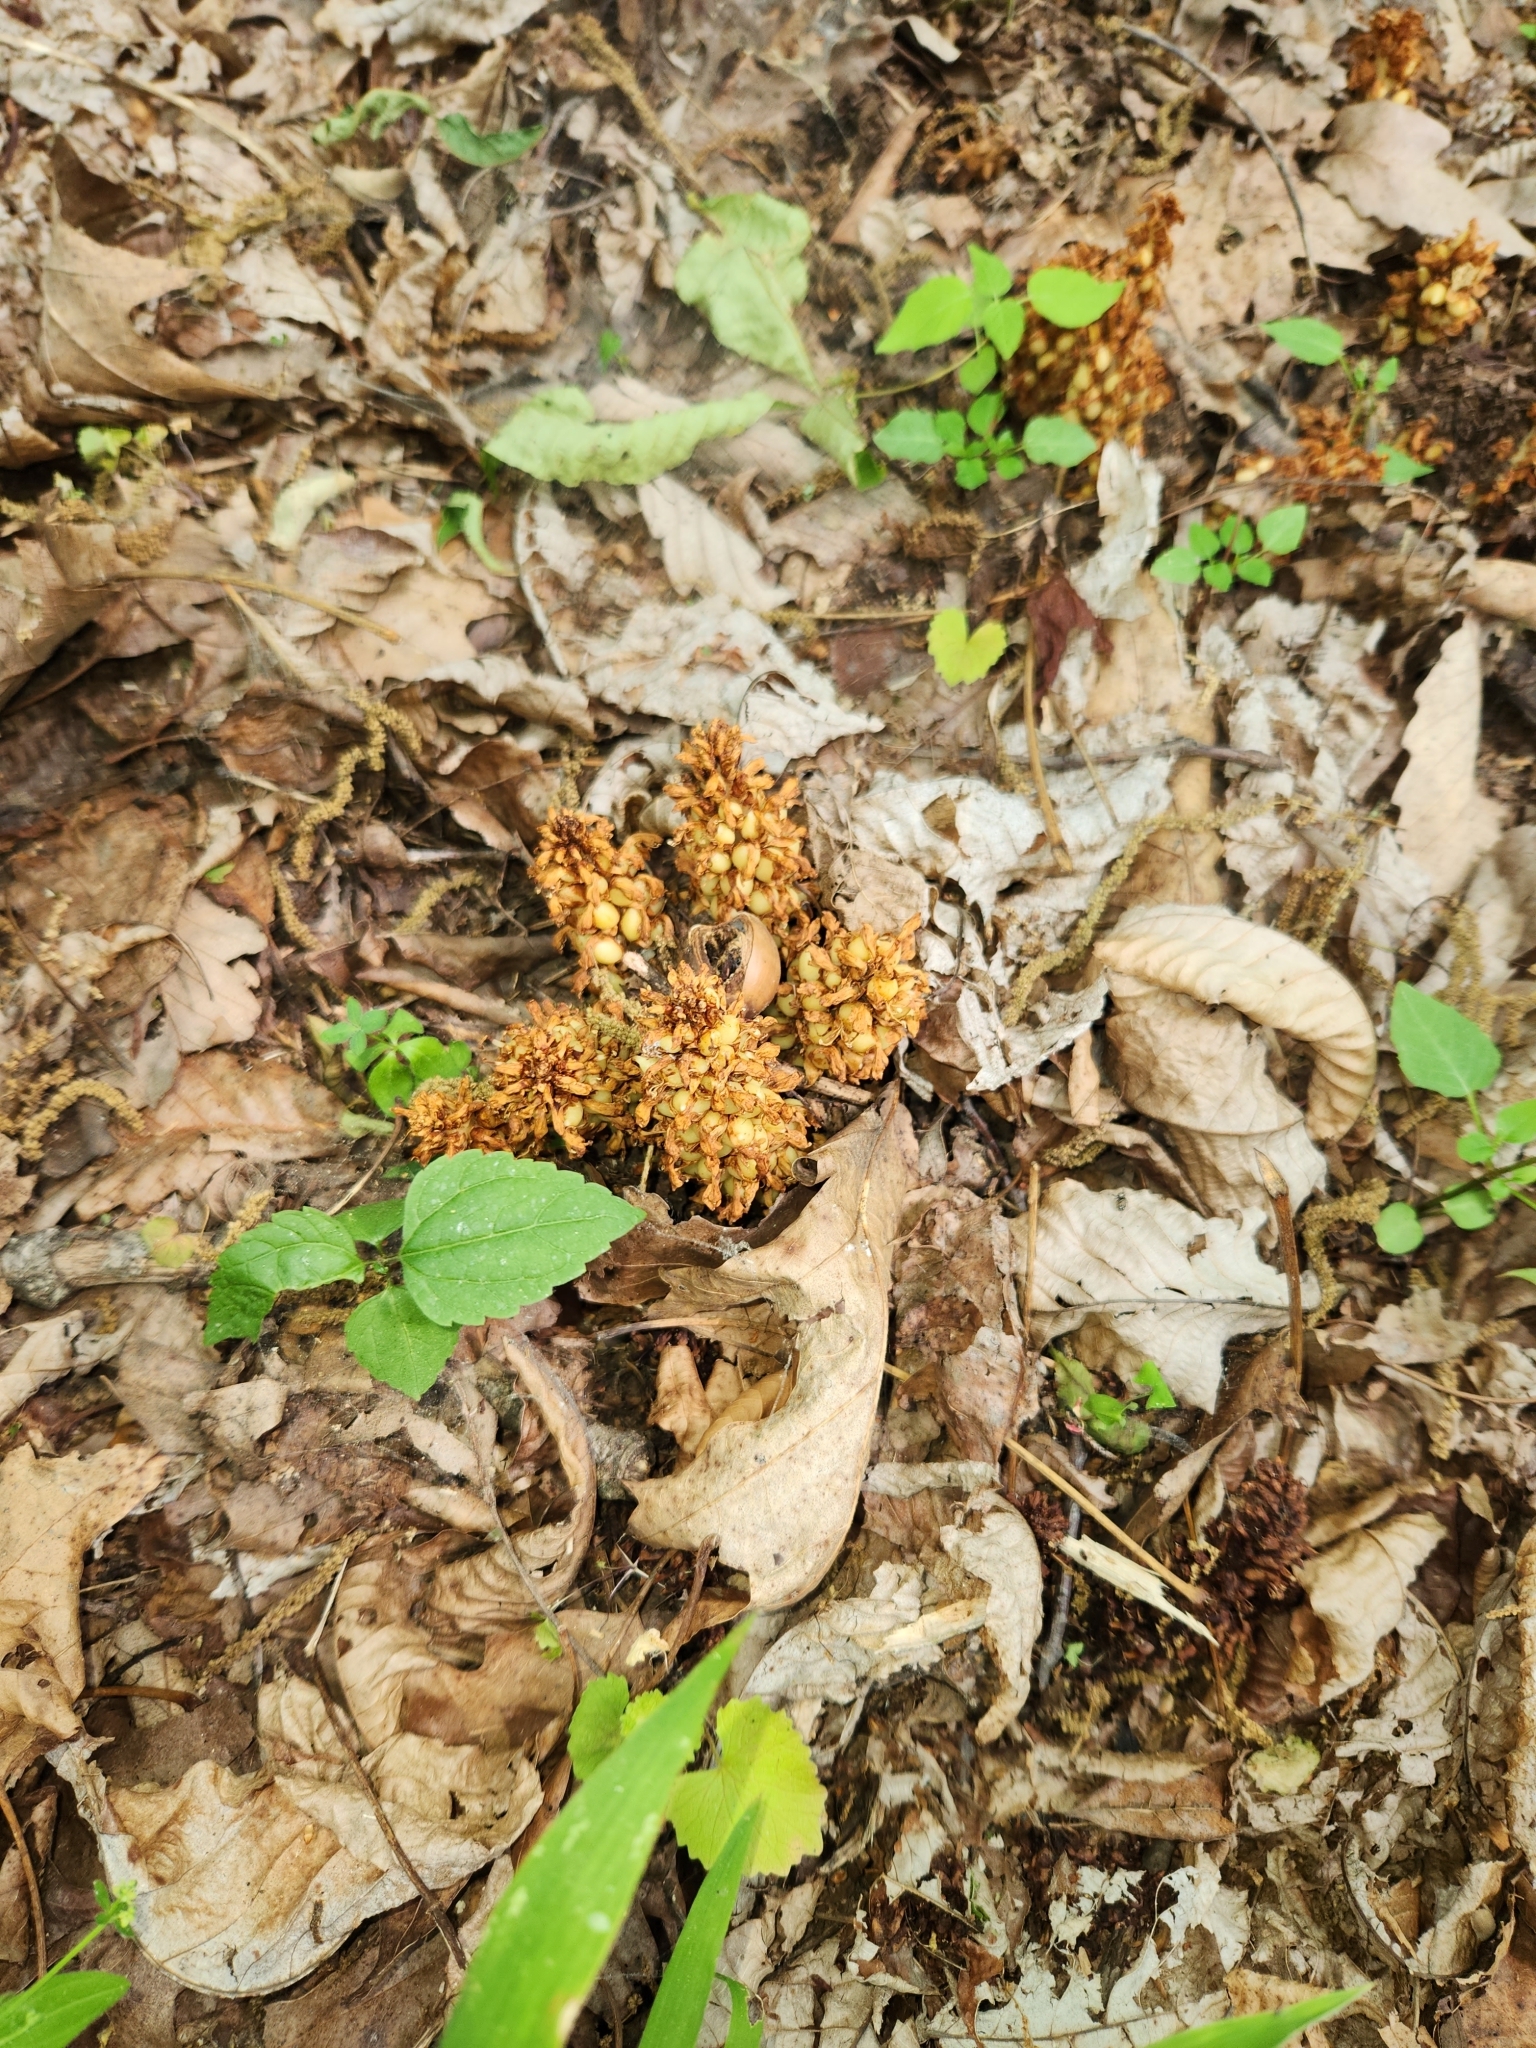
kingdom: Plantae
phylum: Tracheophyta
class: Magnoliopsida
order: Lamiales
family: Orobanchaceae
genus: Conopholis
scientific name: Conopholis americana
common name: American cancer-root
